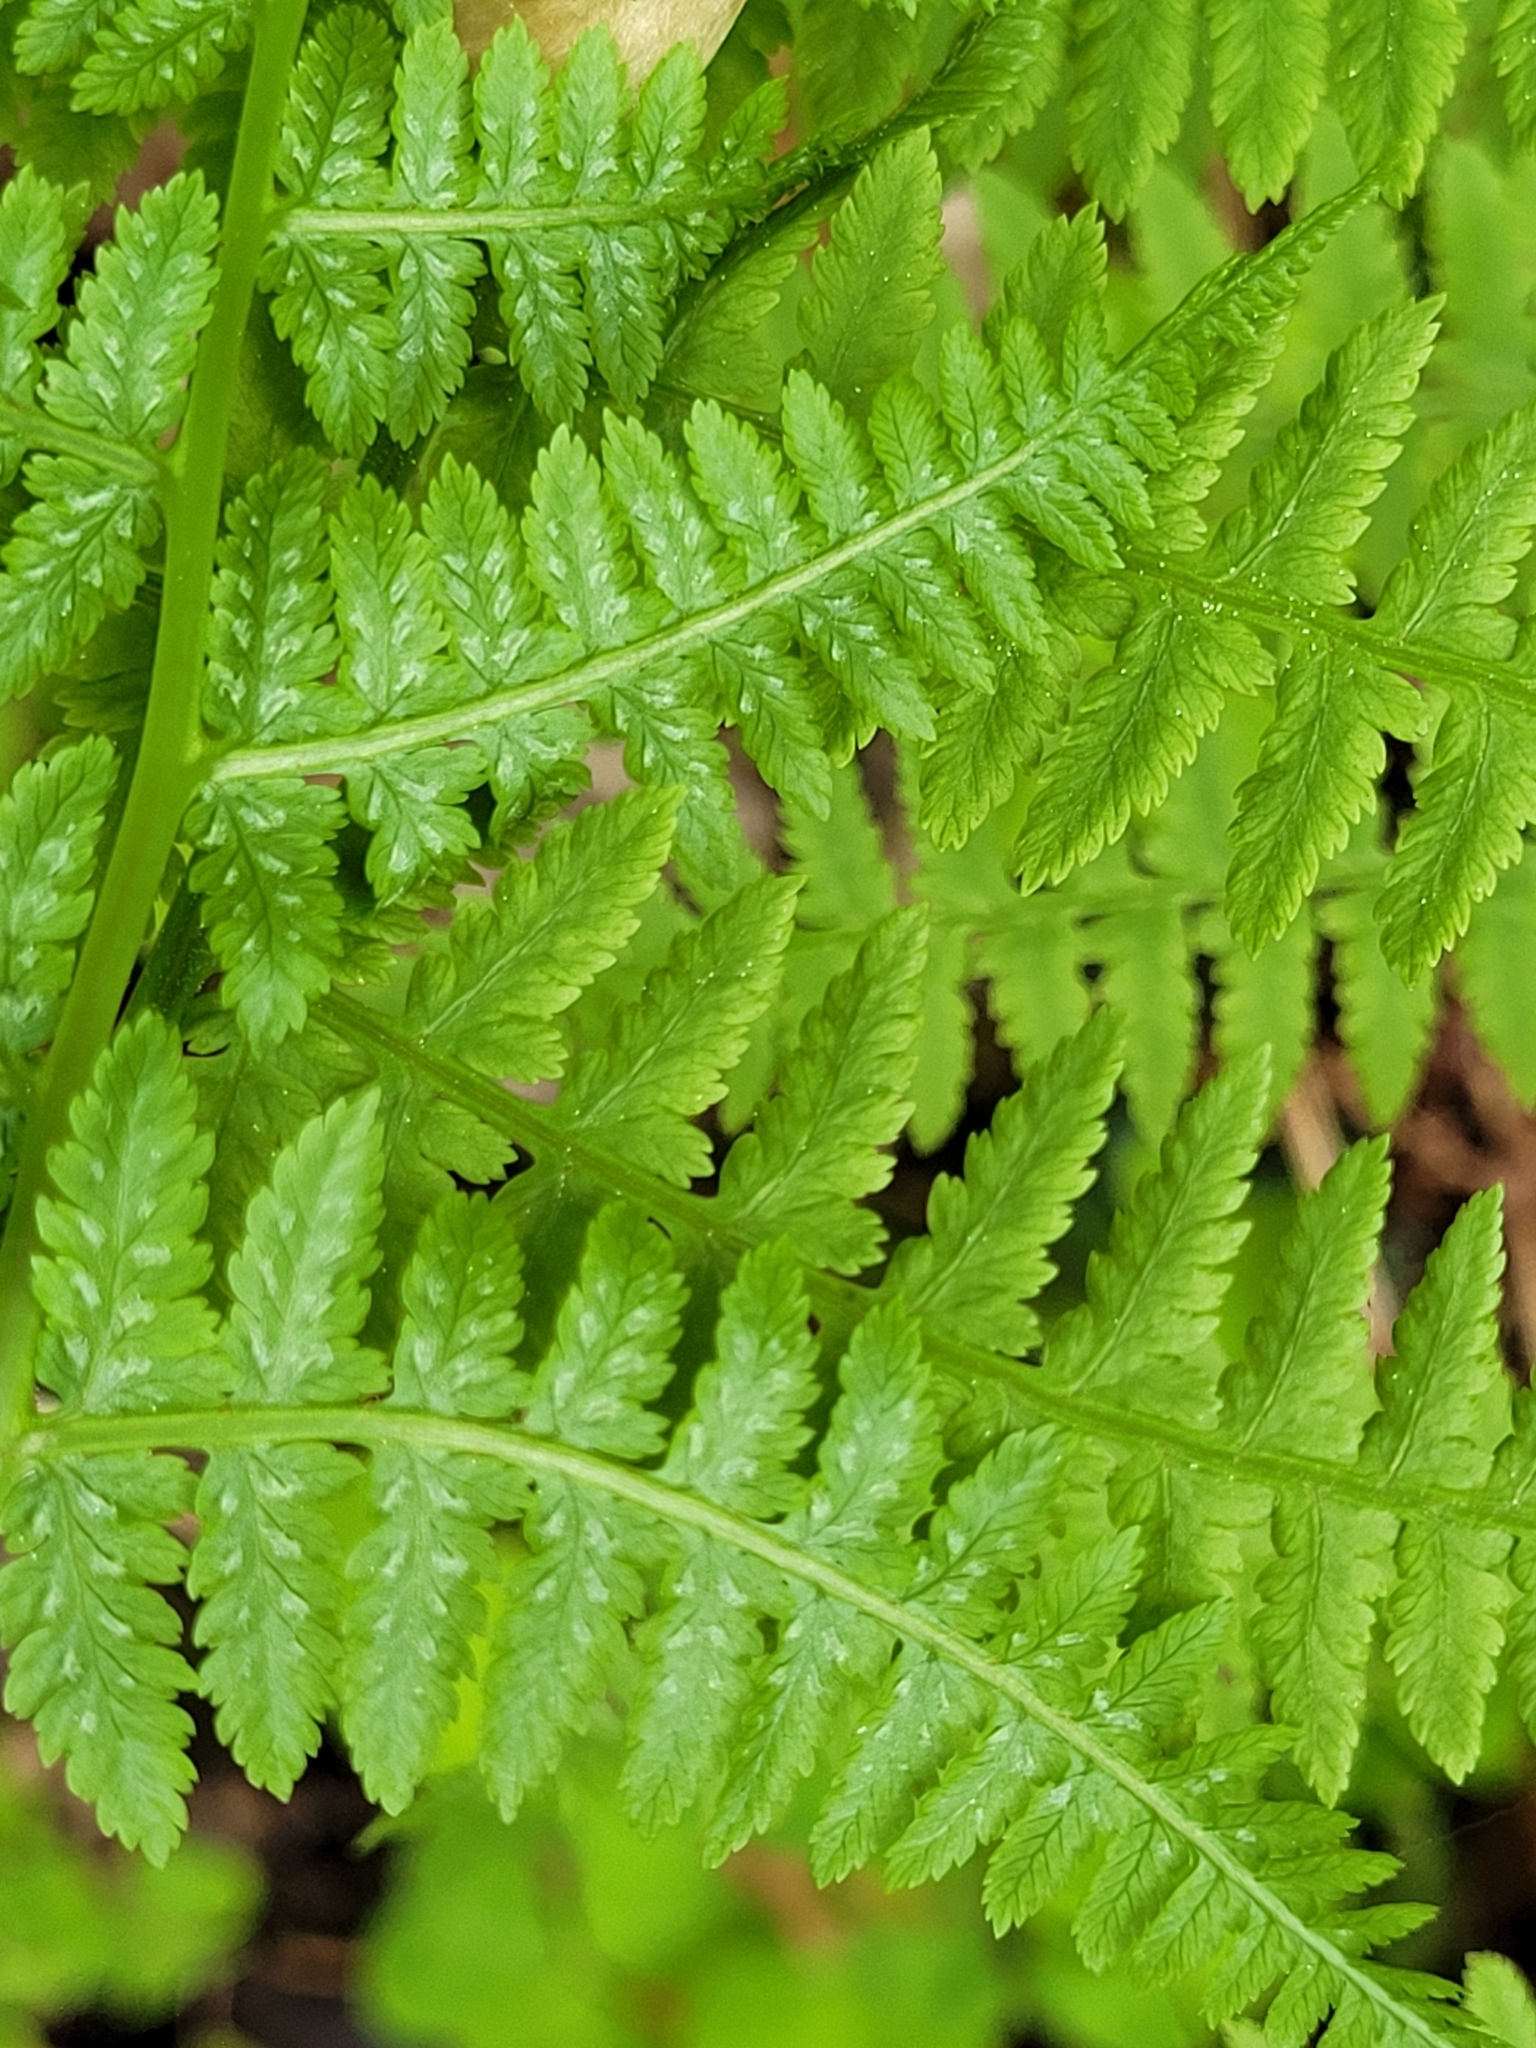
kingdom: Plantae
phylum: Tracheophyta
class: Polypodiopsida
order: Polypodiales
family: Athyriaceae
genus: Athyrium
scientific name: Athyrium filix-femina
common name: Lady fern
